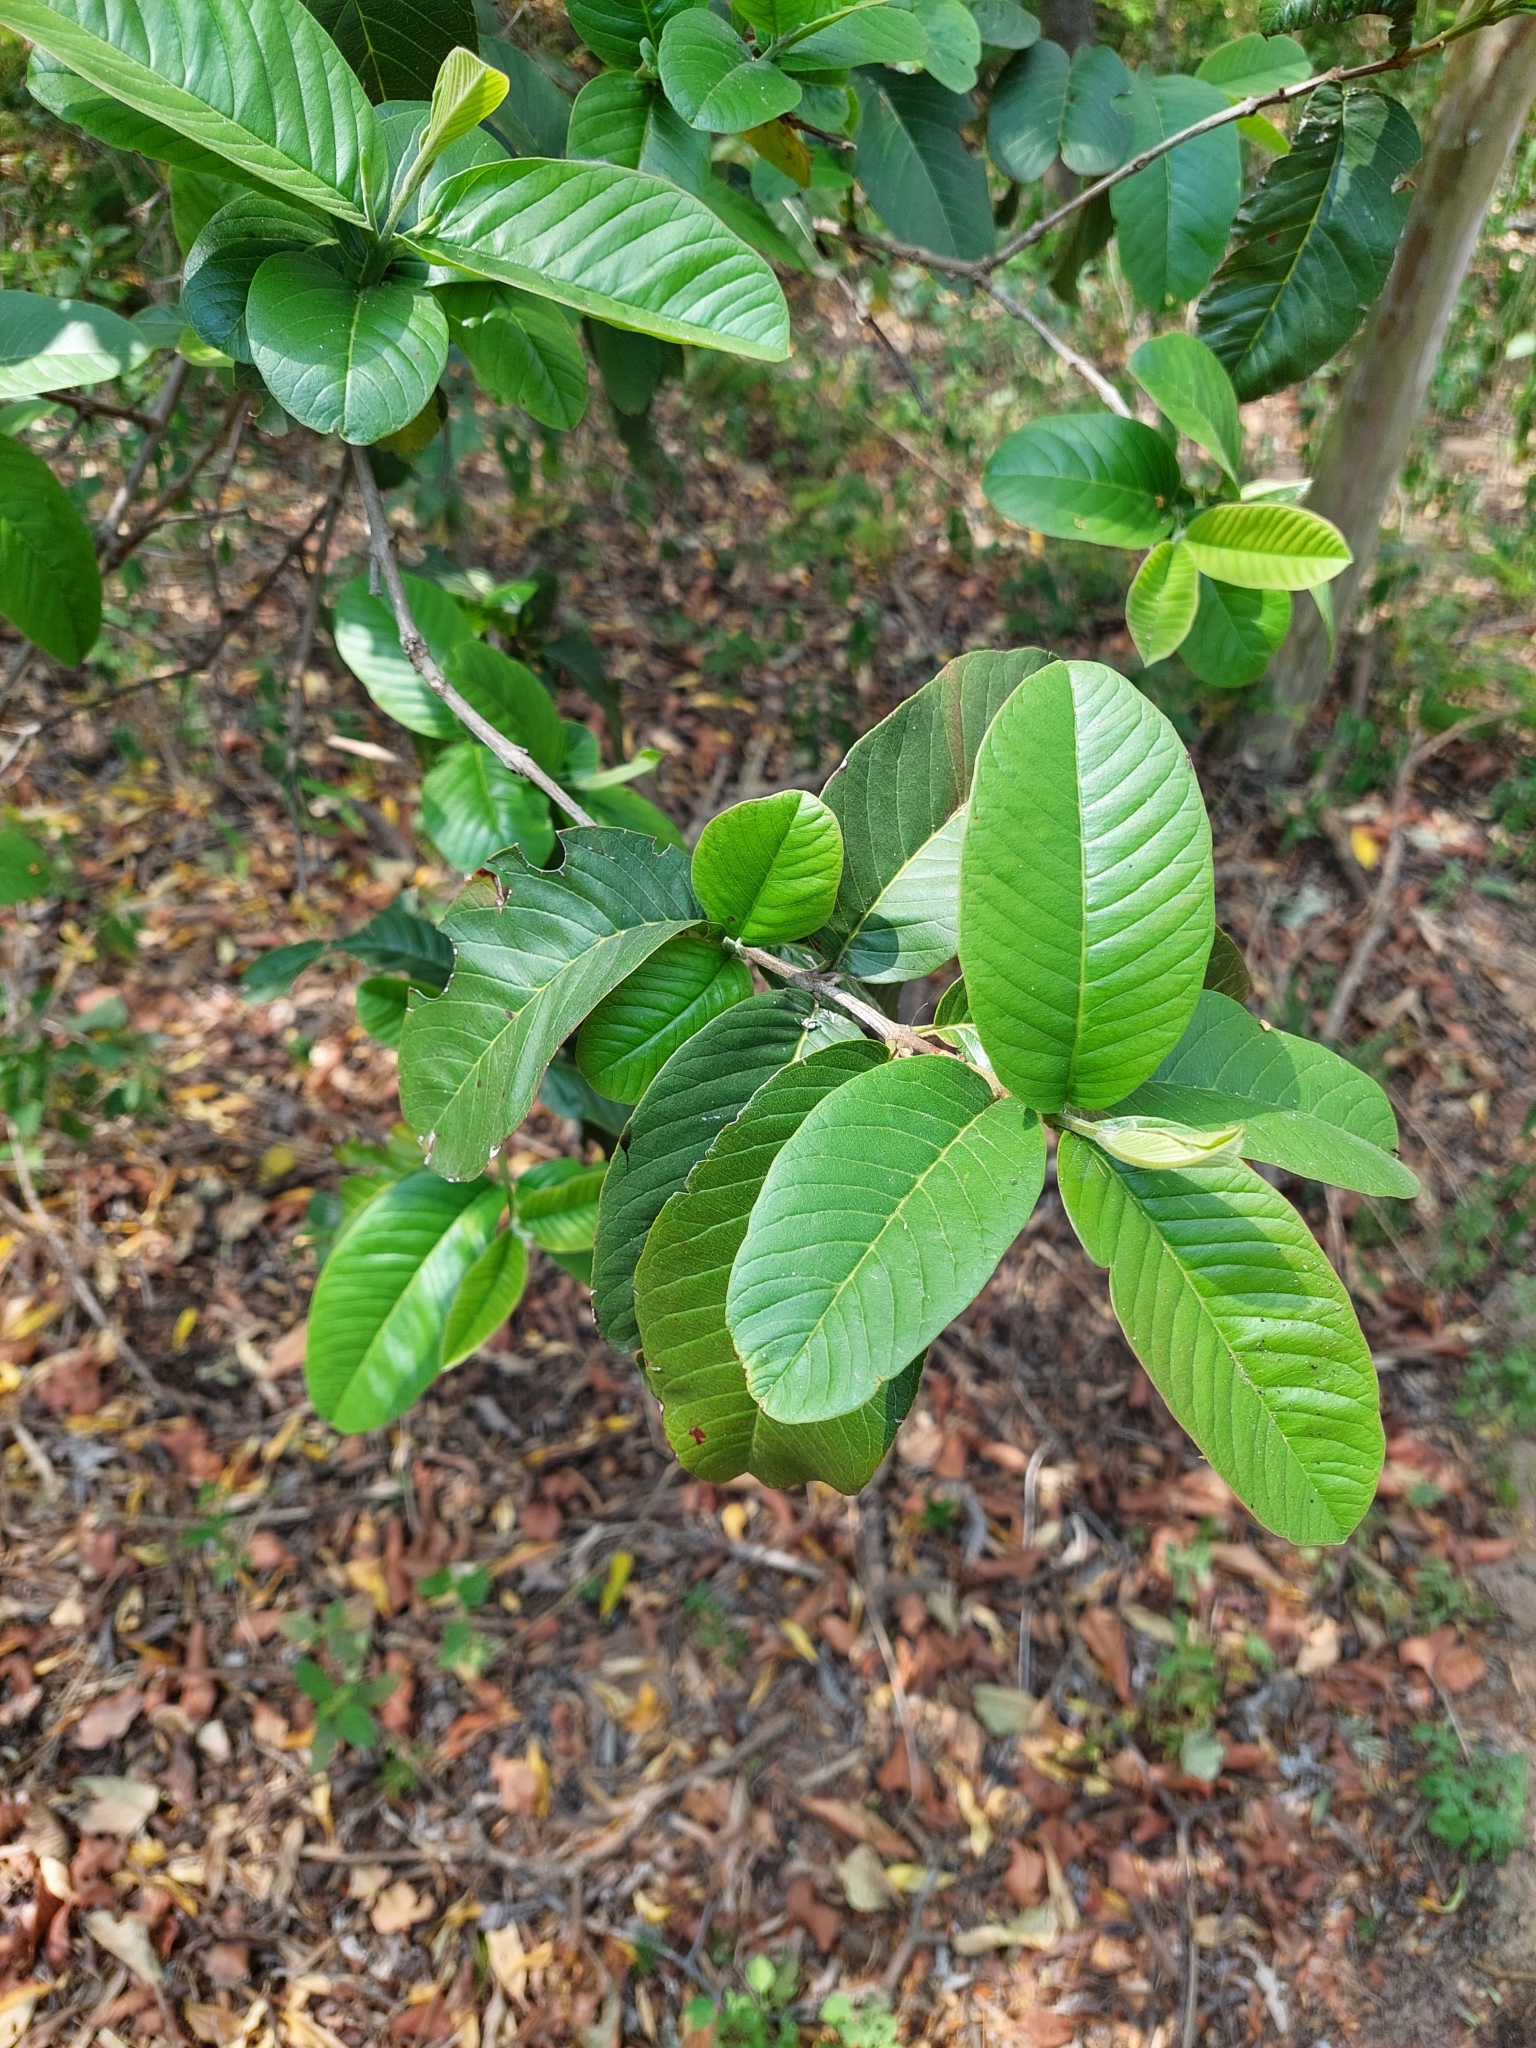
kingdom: Plantae
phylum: Tracheophyta
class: Magnoliopsida
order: Myrtales
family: Myrtaceae
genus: Psidium
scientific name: Psidium guajava
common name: Guava
